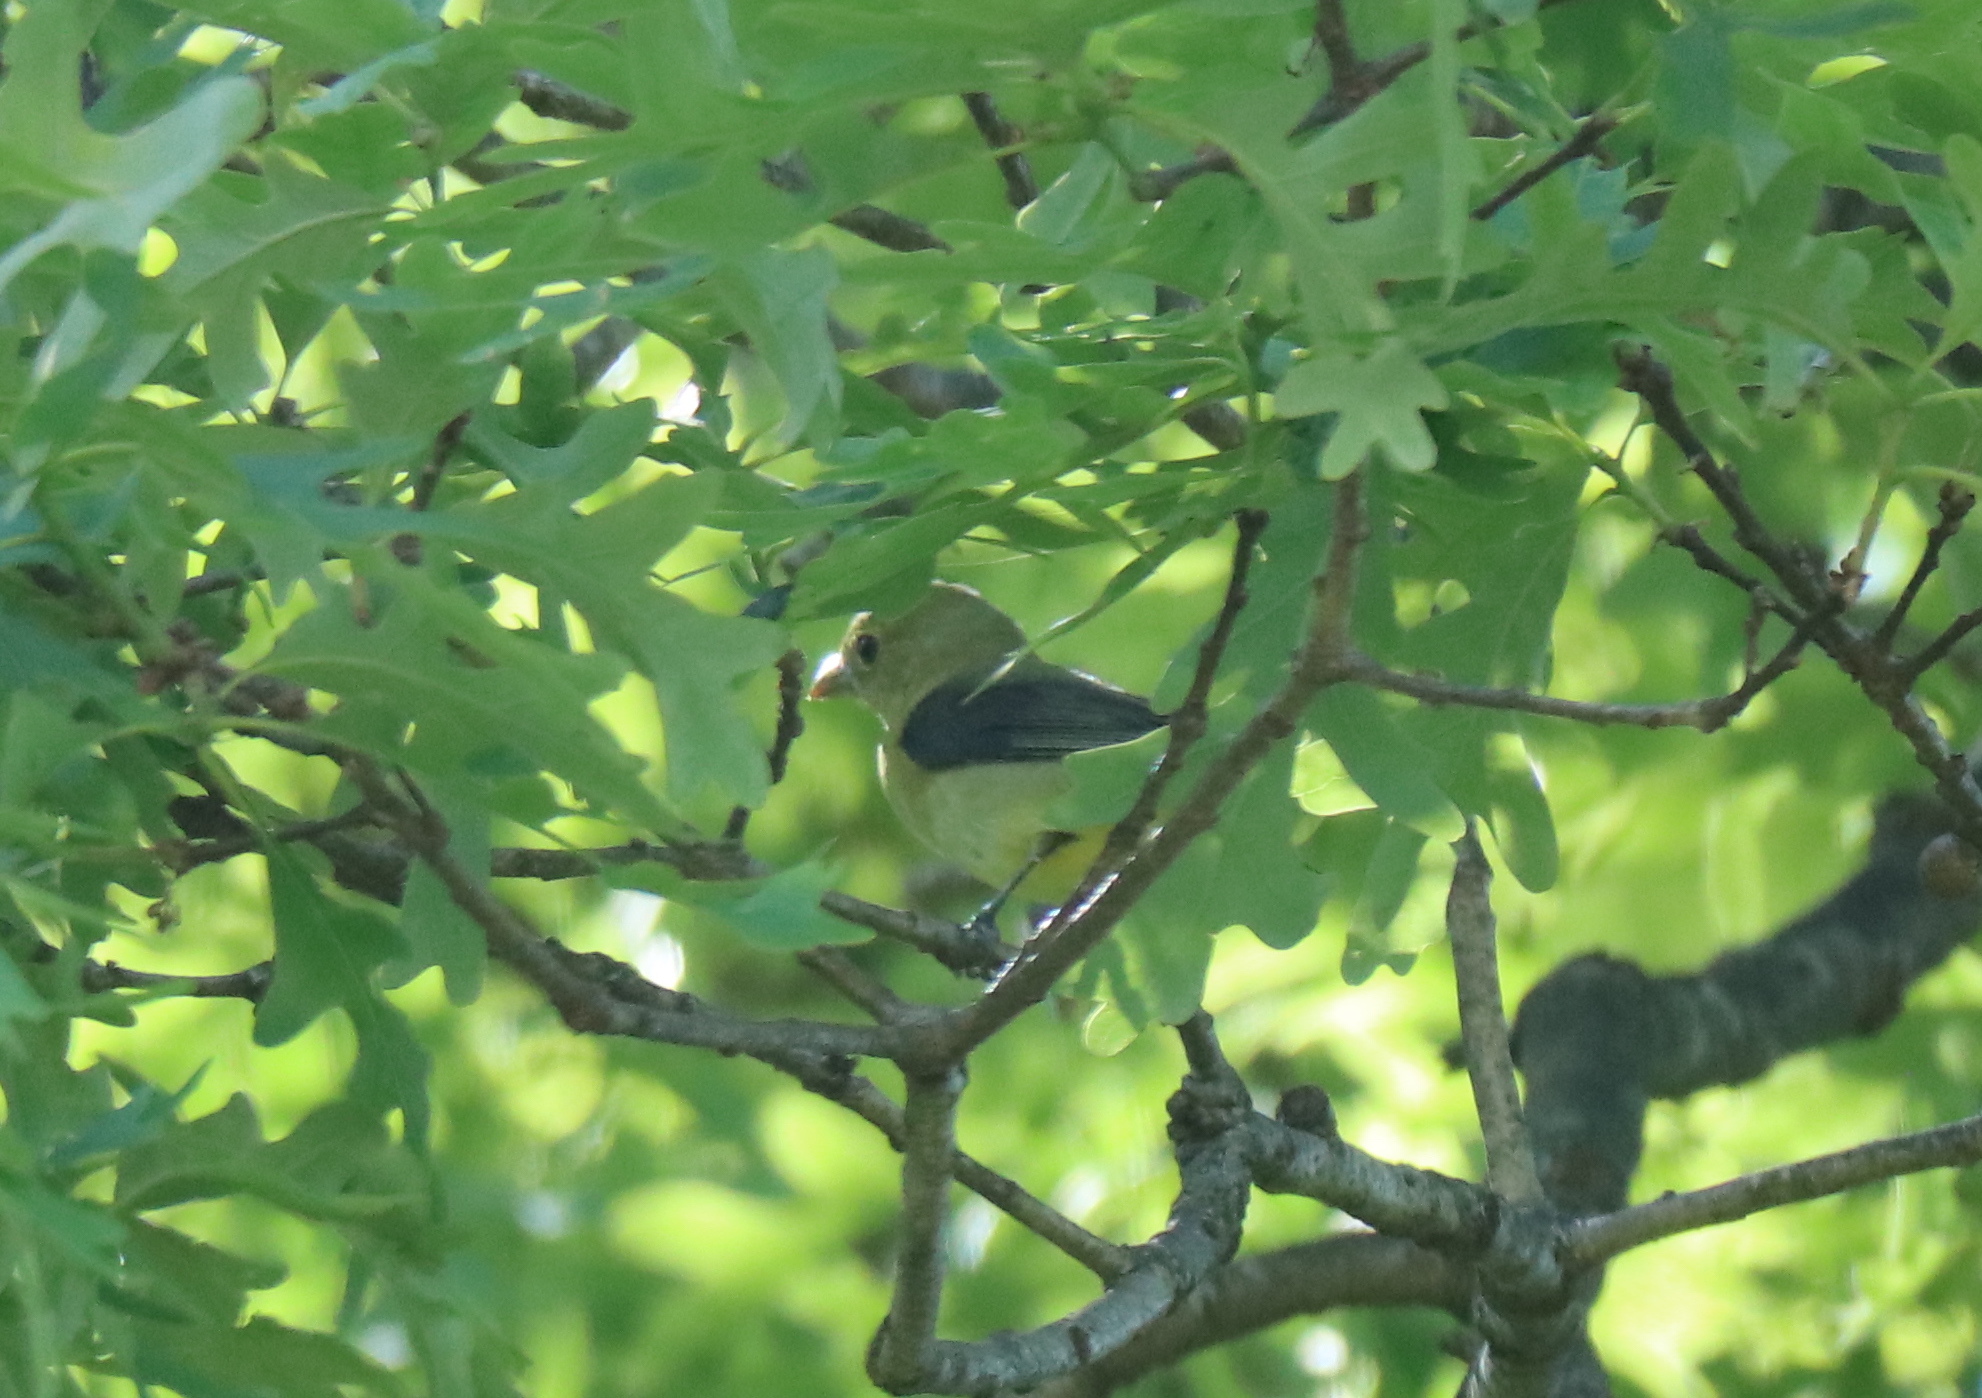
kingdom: Animalia
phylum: Chordata
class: Aves
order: Passeriformes
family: Cardinalidae
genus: Piranga
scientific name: Piranga olivacea
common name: Scarlet tanager
